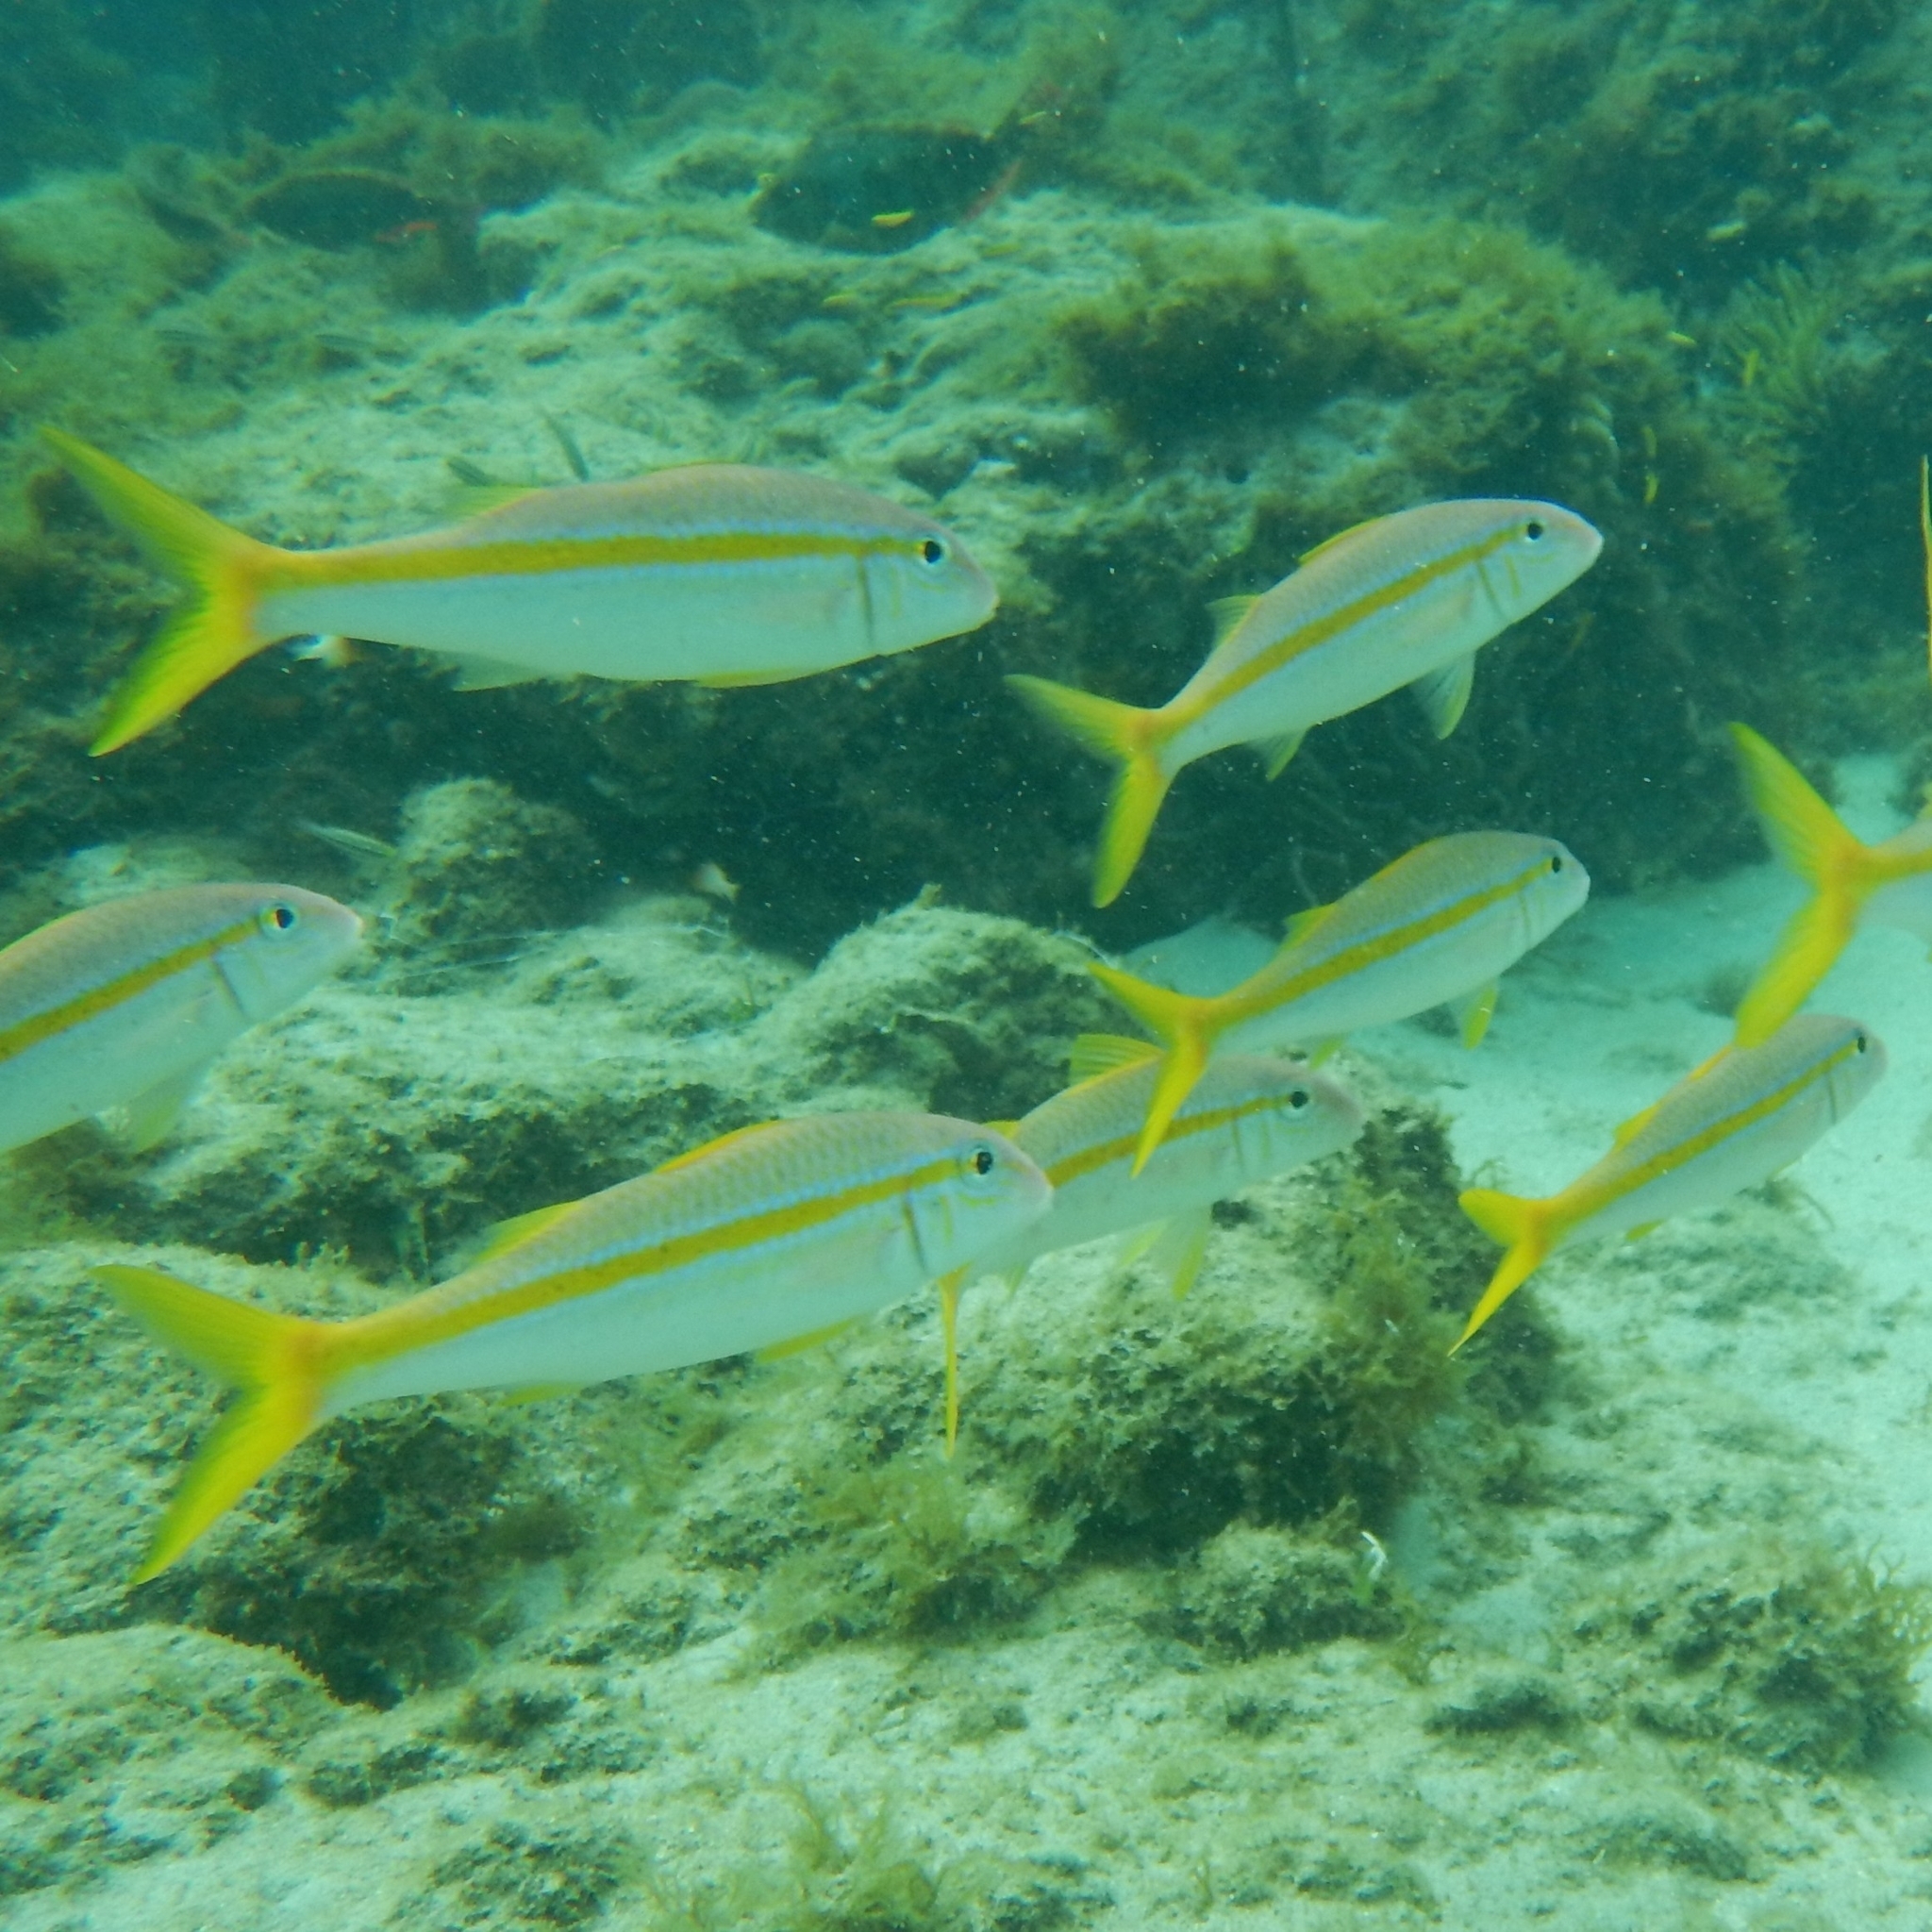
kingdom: Animalia
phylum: Chordata
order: Perciformes
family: Mullidae
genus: Mulloidichthys
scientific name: Mulloidichthys martinicus
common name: Yellow goatfish
